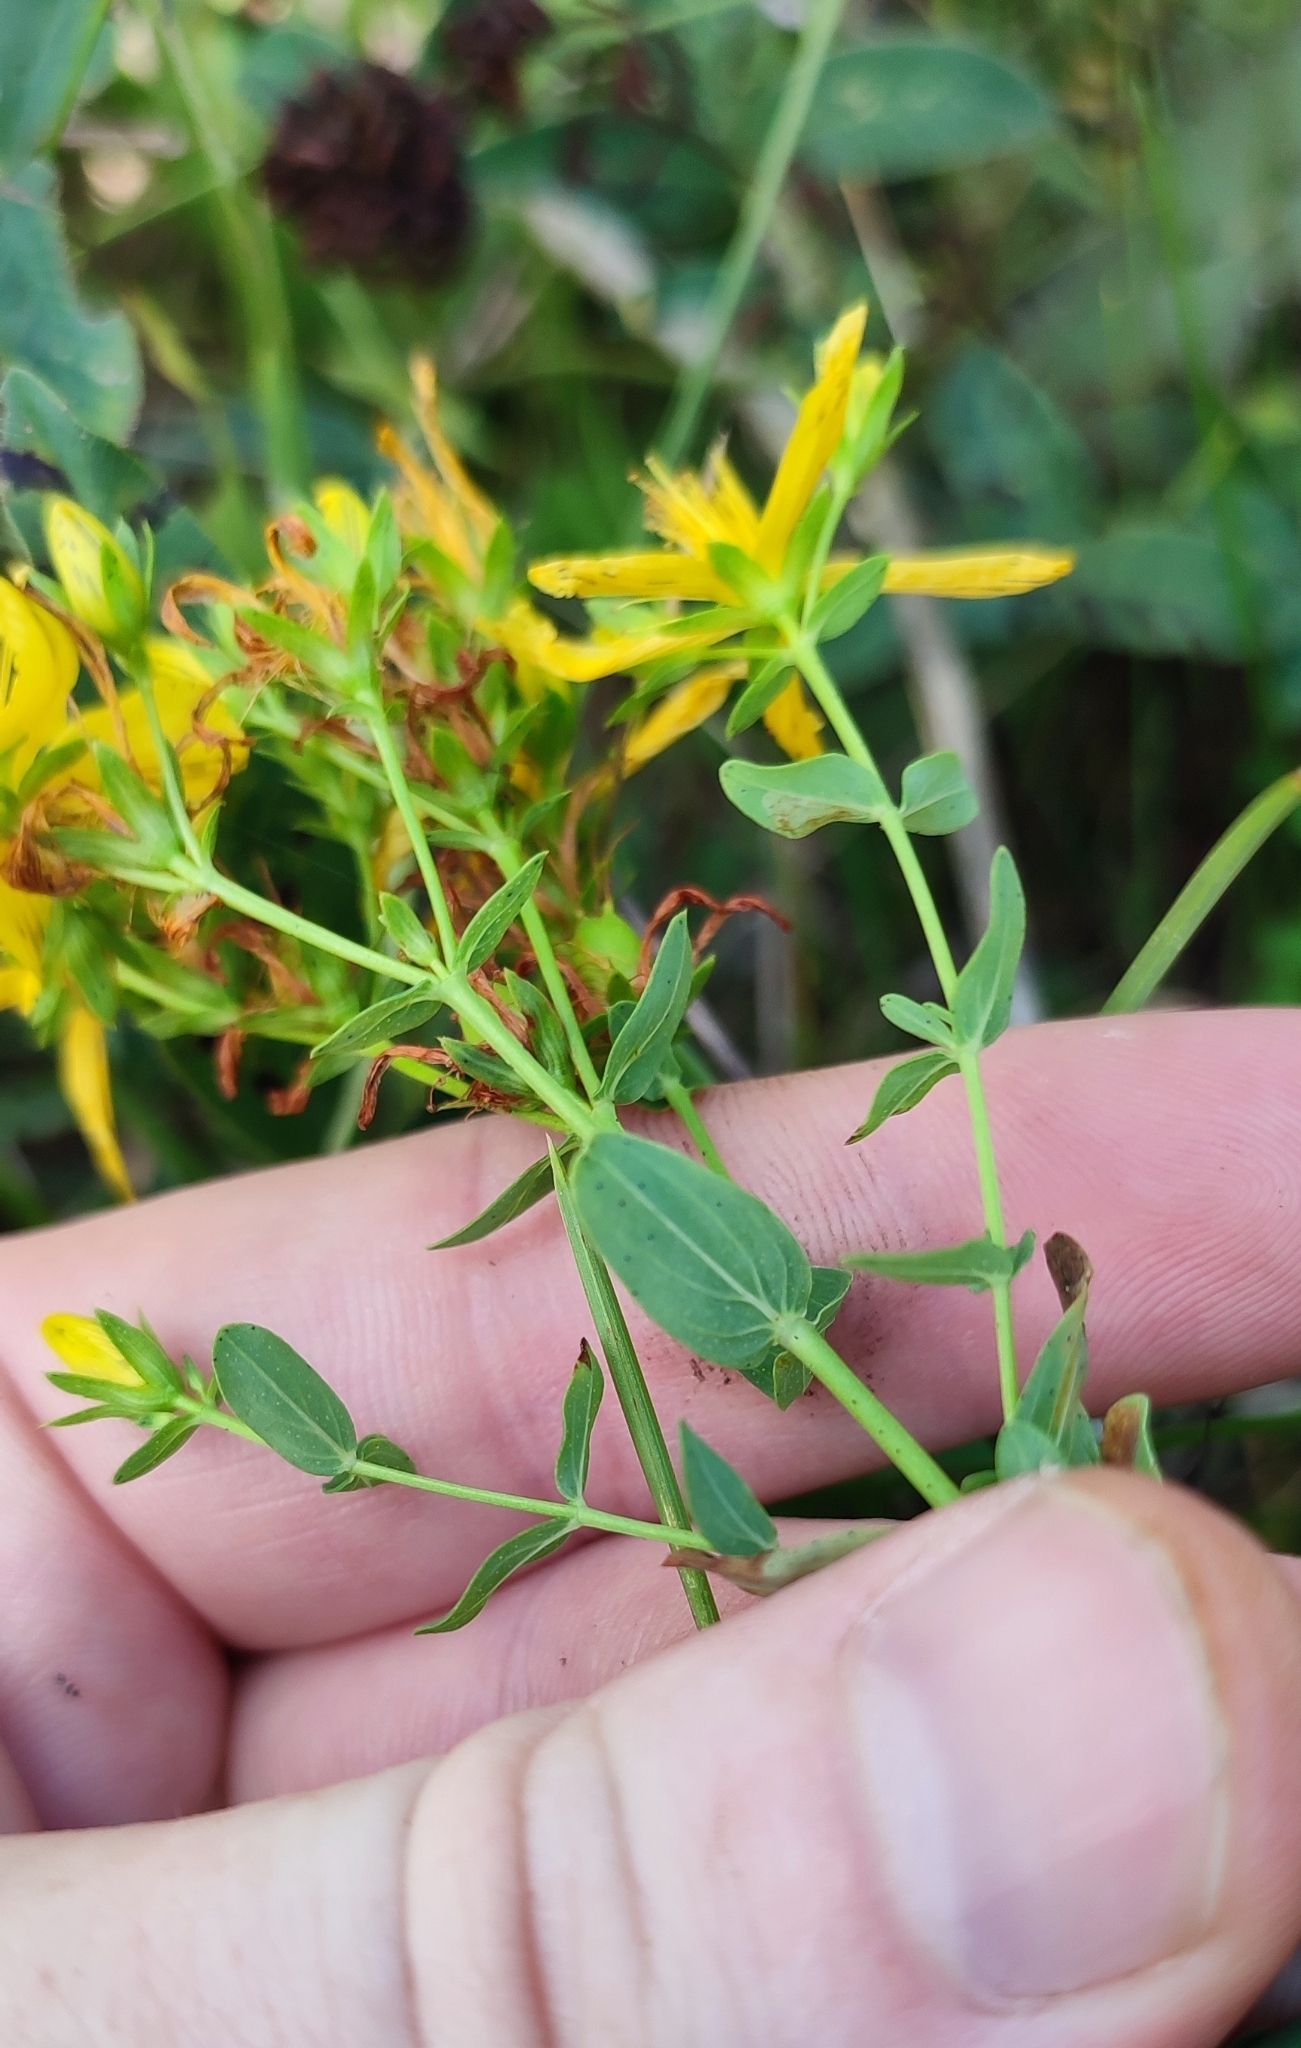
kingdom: Plantae
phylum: Tracheophyta
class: Magnoliopsida
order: Malpighiales
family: Hypericaceae
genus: Hypericum
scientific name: Hypericum perforatum
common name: Common st. johnswort
